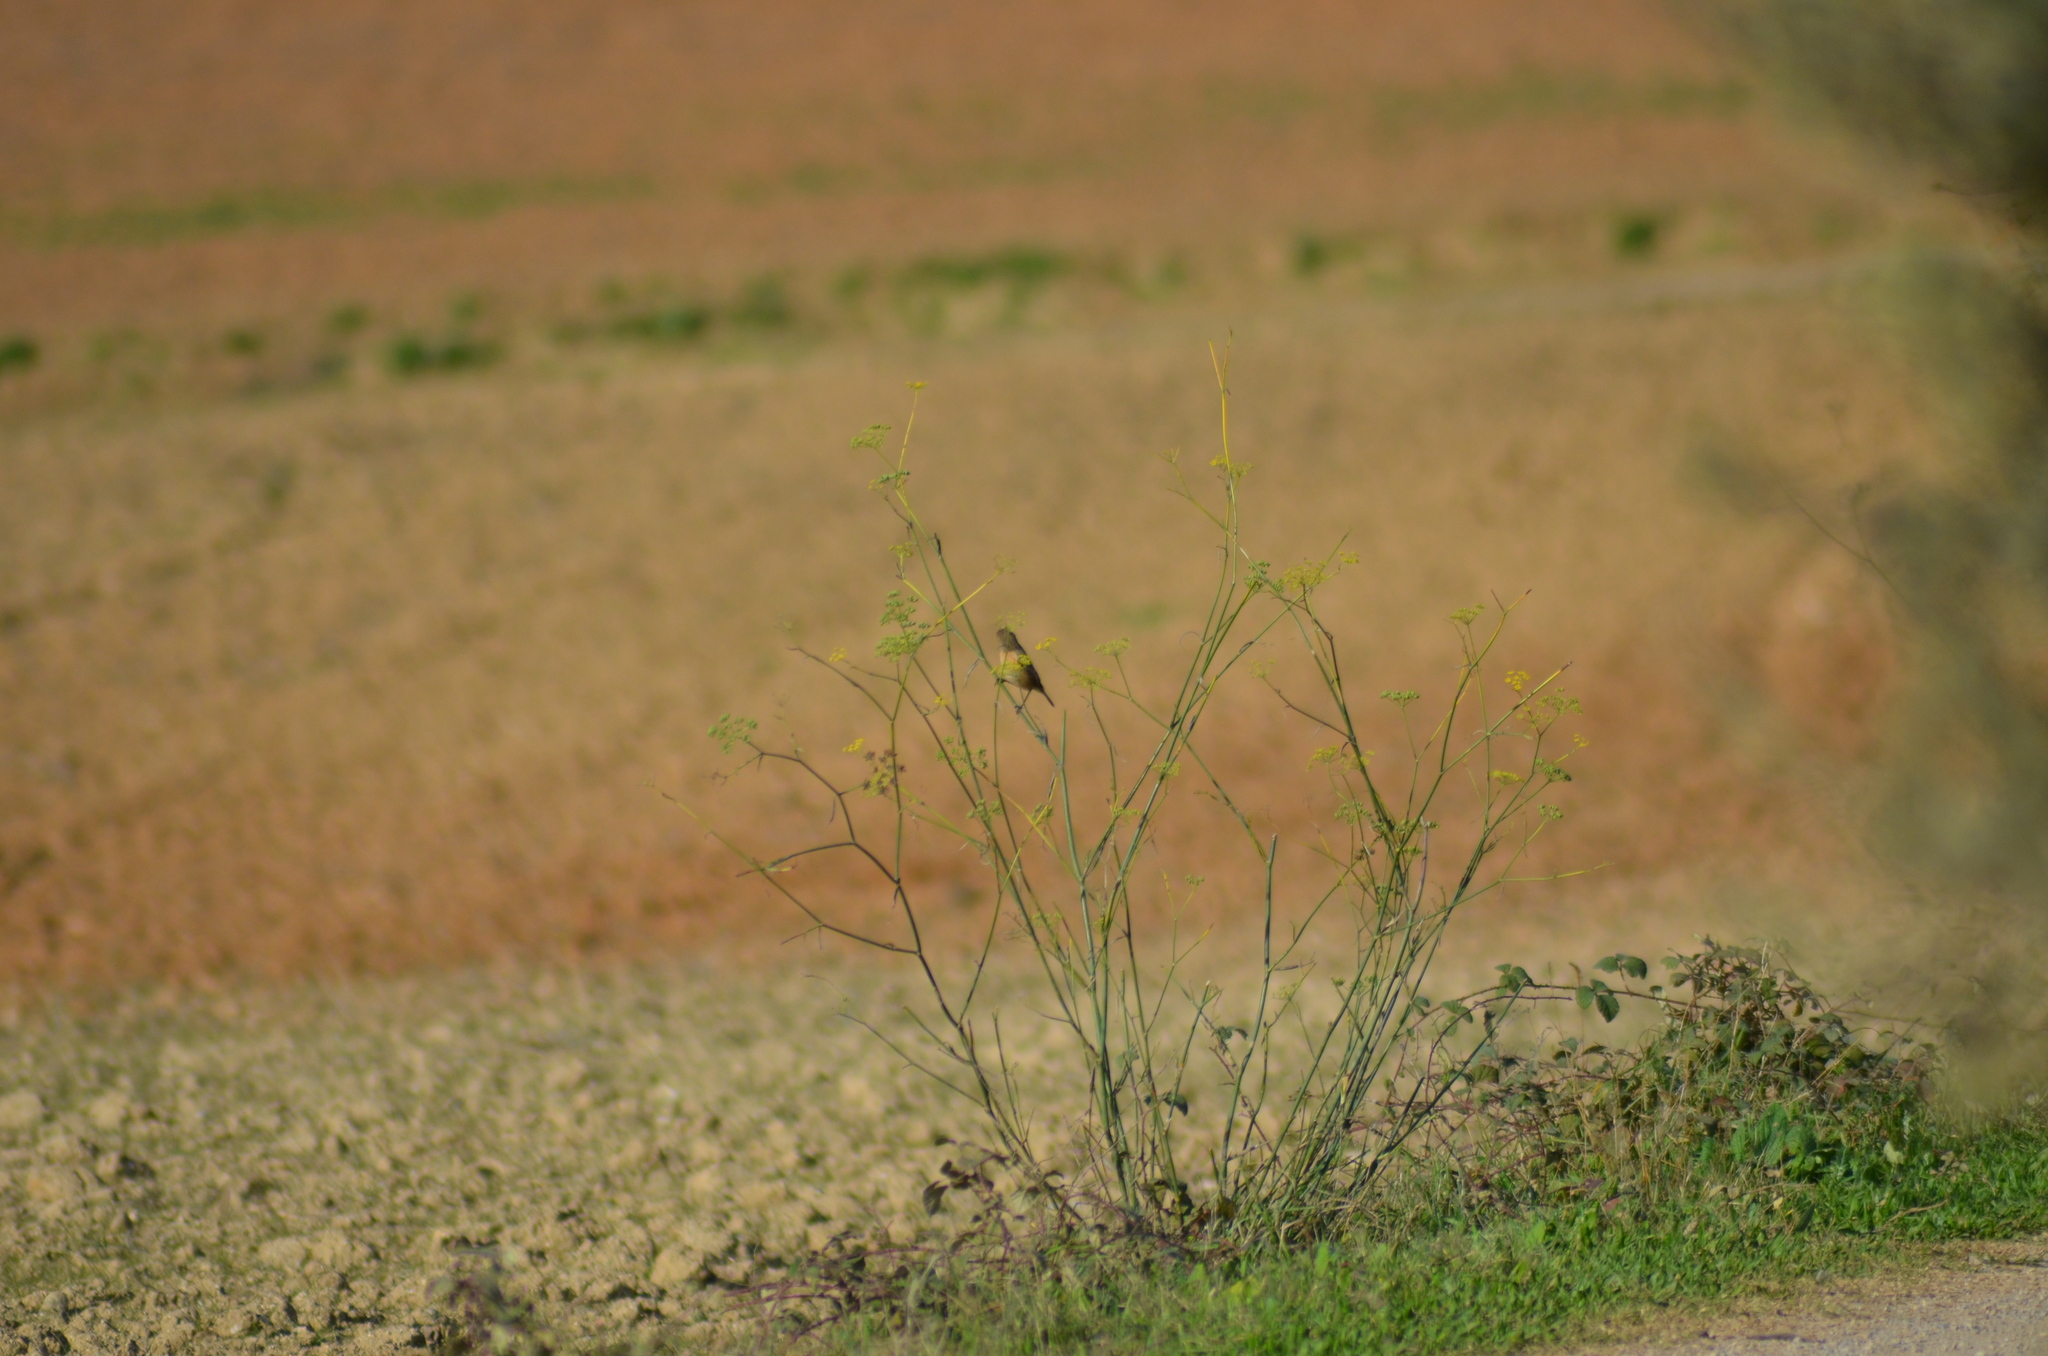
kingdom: Animalia
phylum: Chordata
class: Aves
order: Passeriformes
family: Muscicapidae
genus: Saxicola
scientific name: Saxicola rubicola
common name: European stonechat
